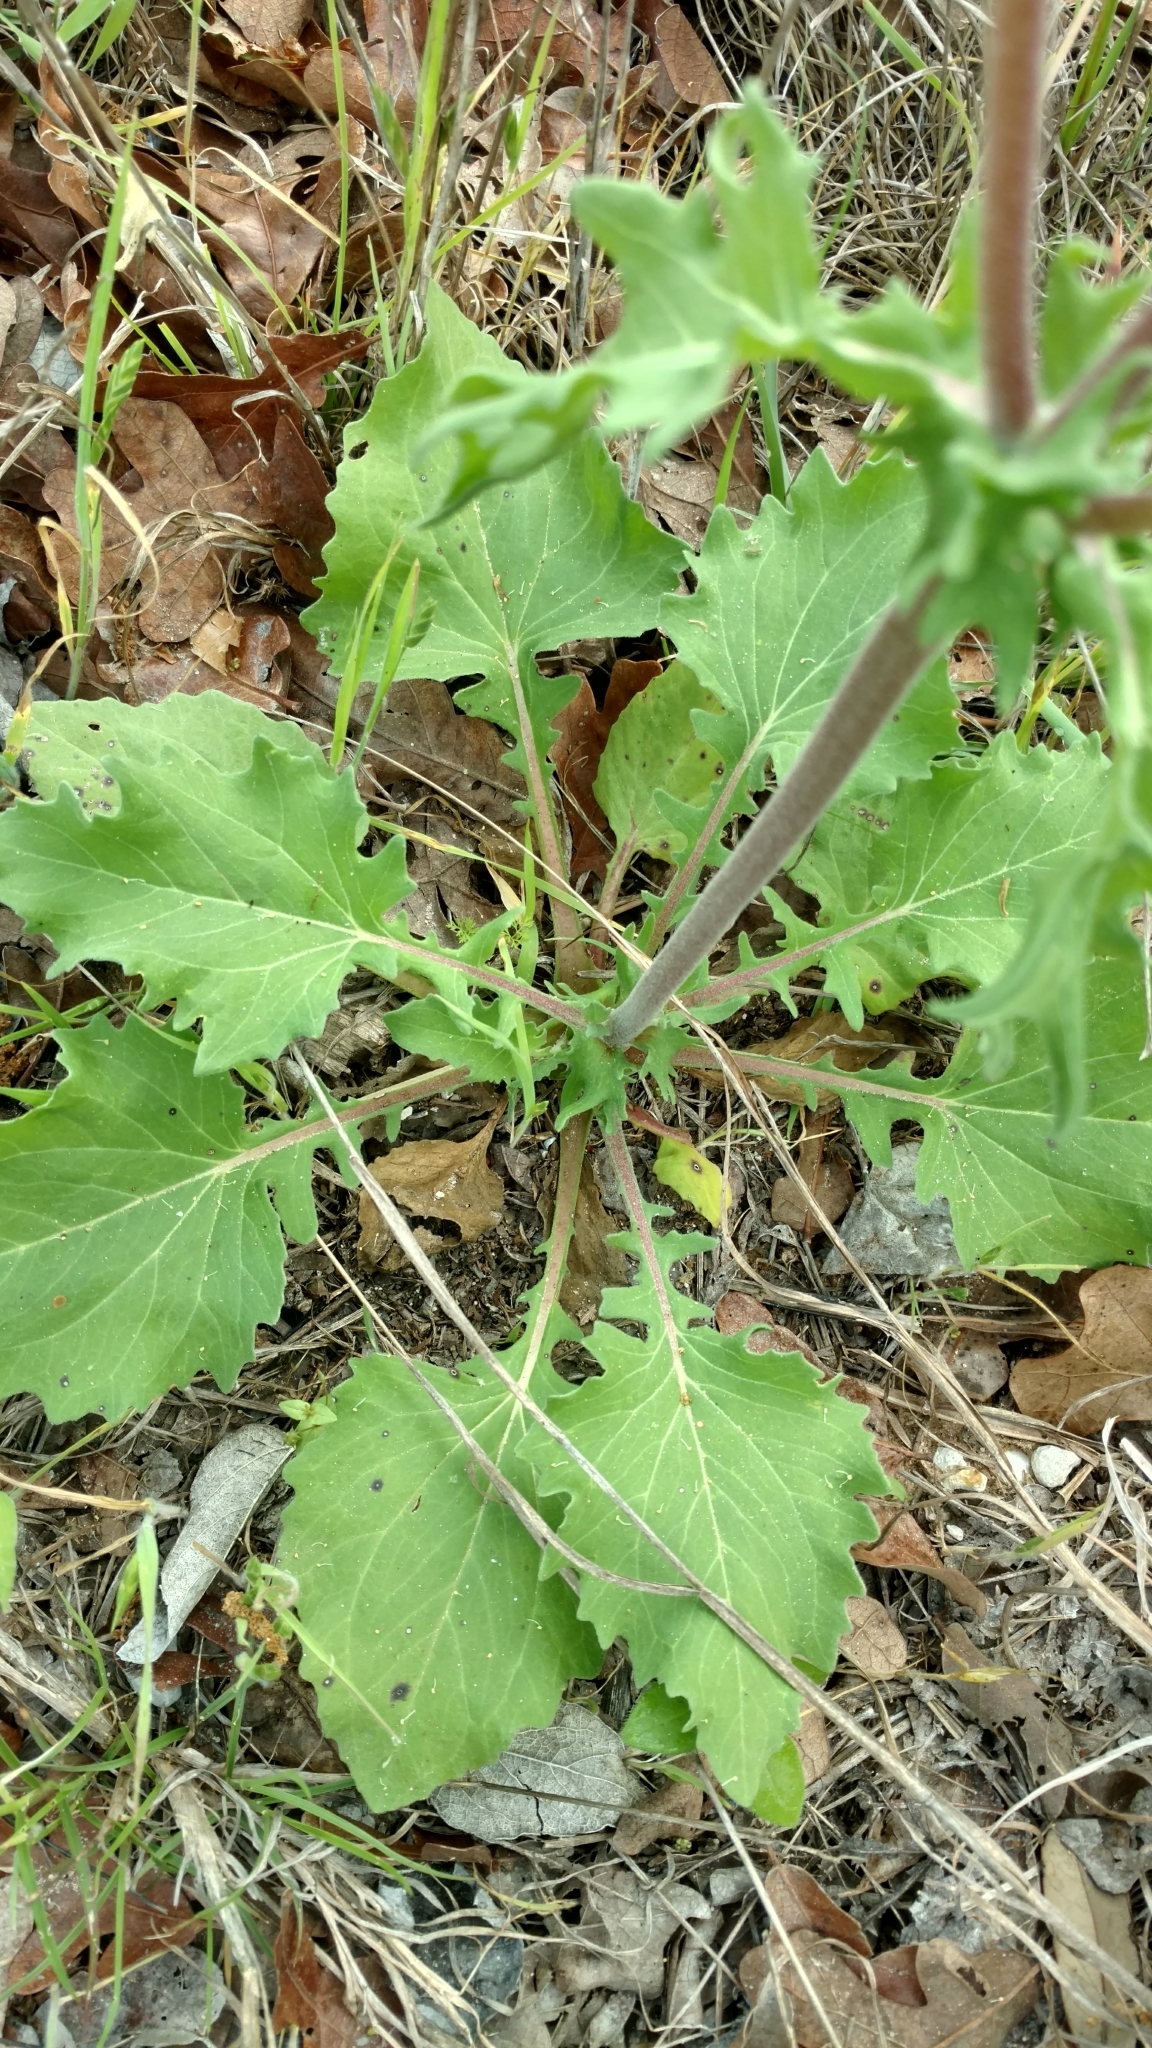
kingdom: Plantae
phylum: Tracheophyta
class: Magnoliopsida
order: Asterales
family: Asteraceae
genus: Tetragonotheca
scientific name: Tetragonotheca repanda
